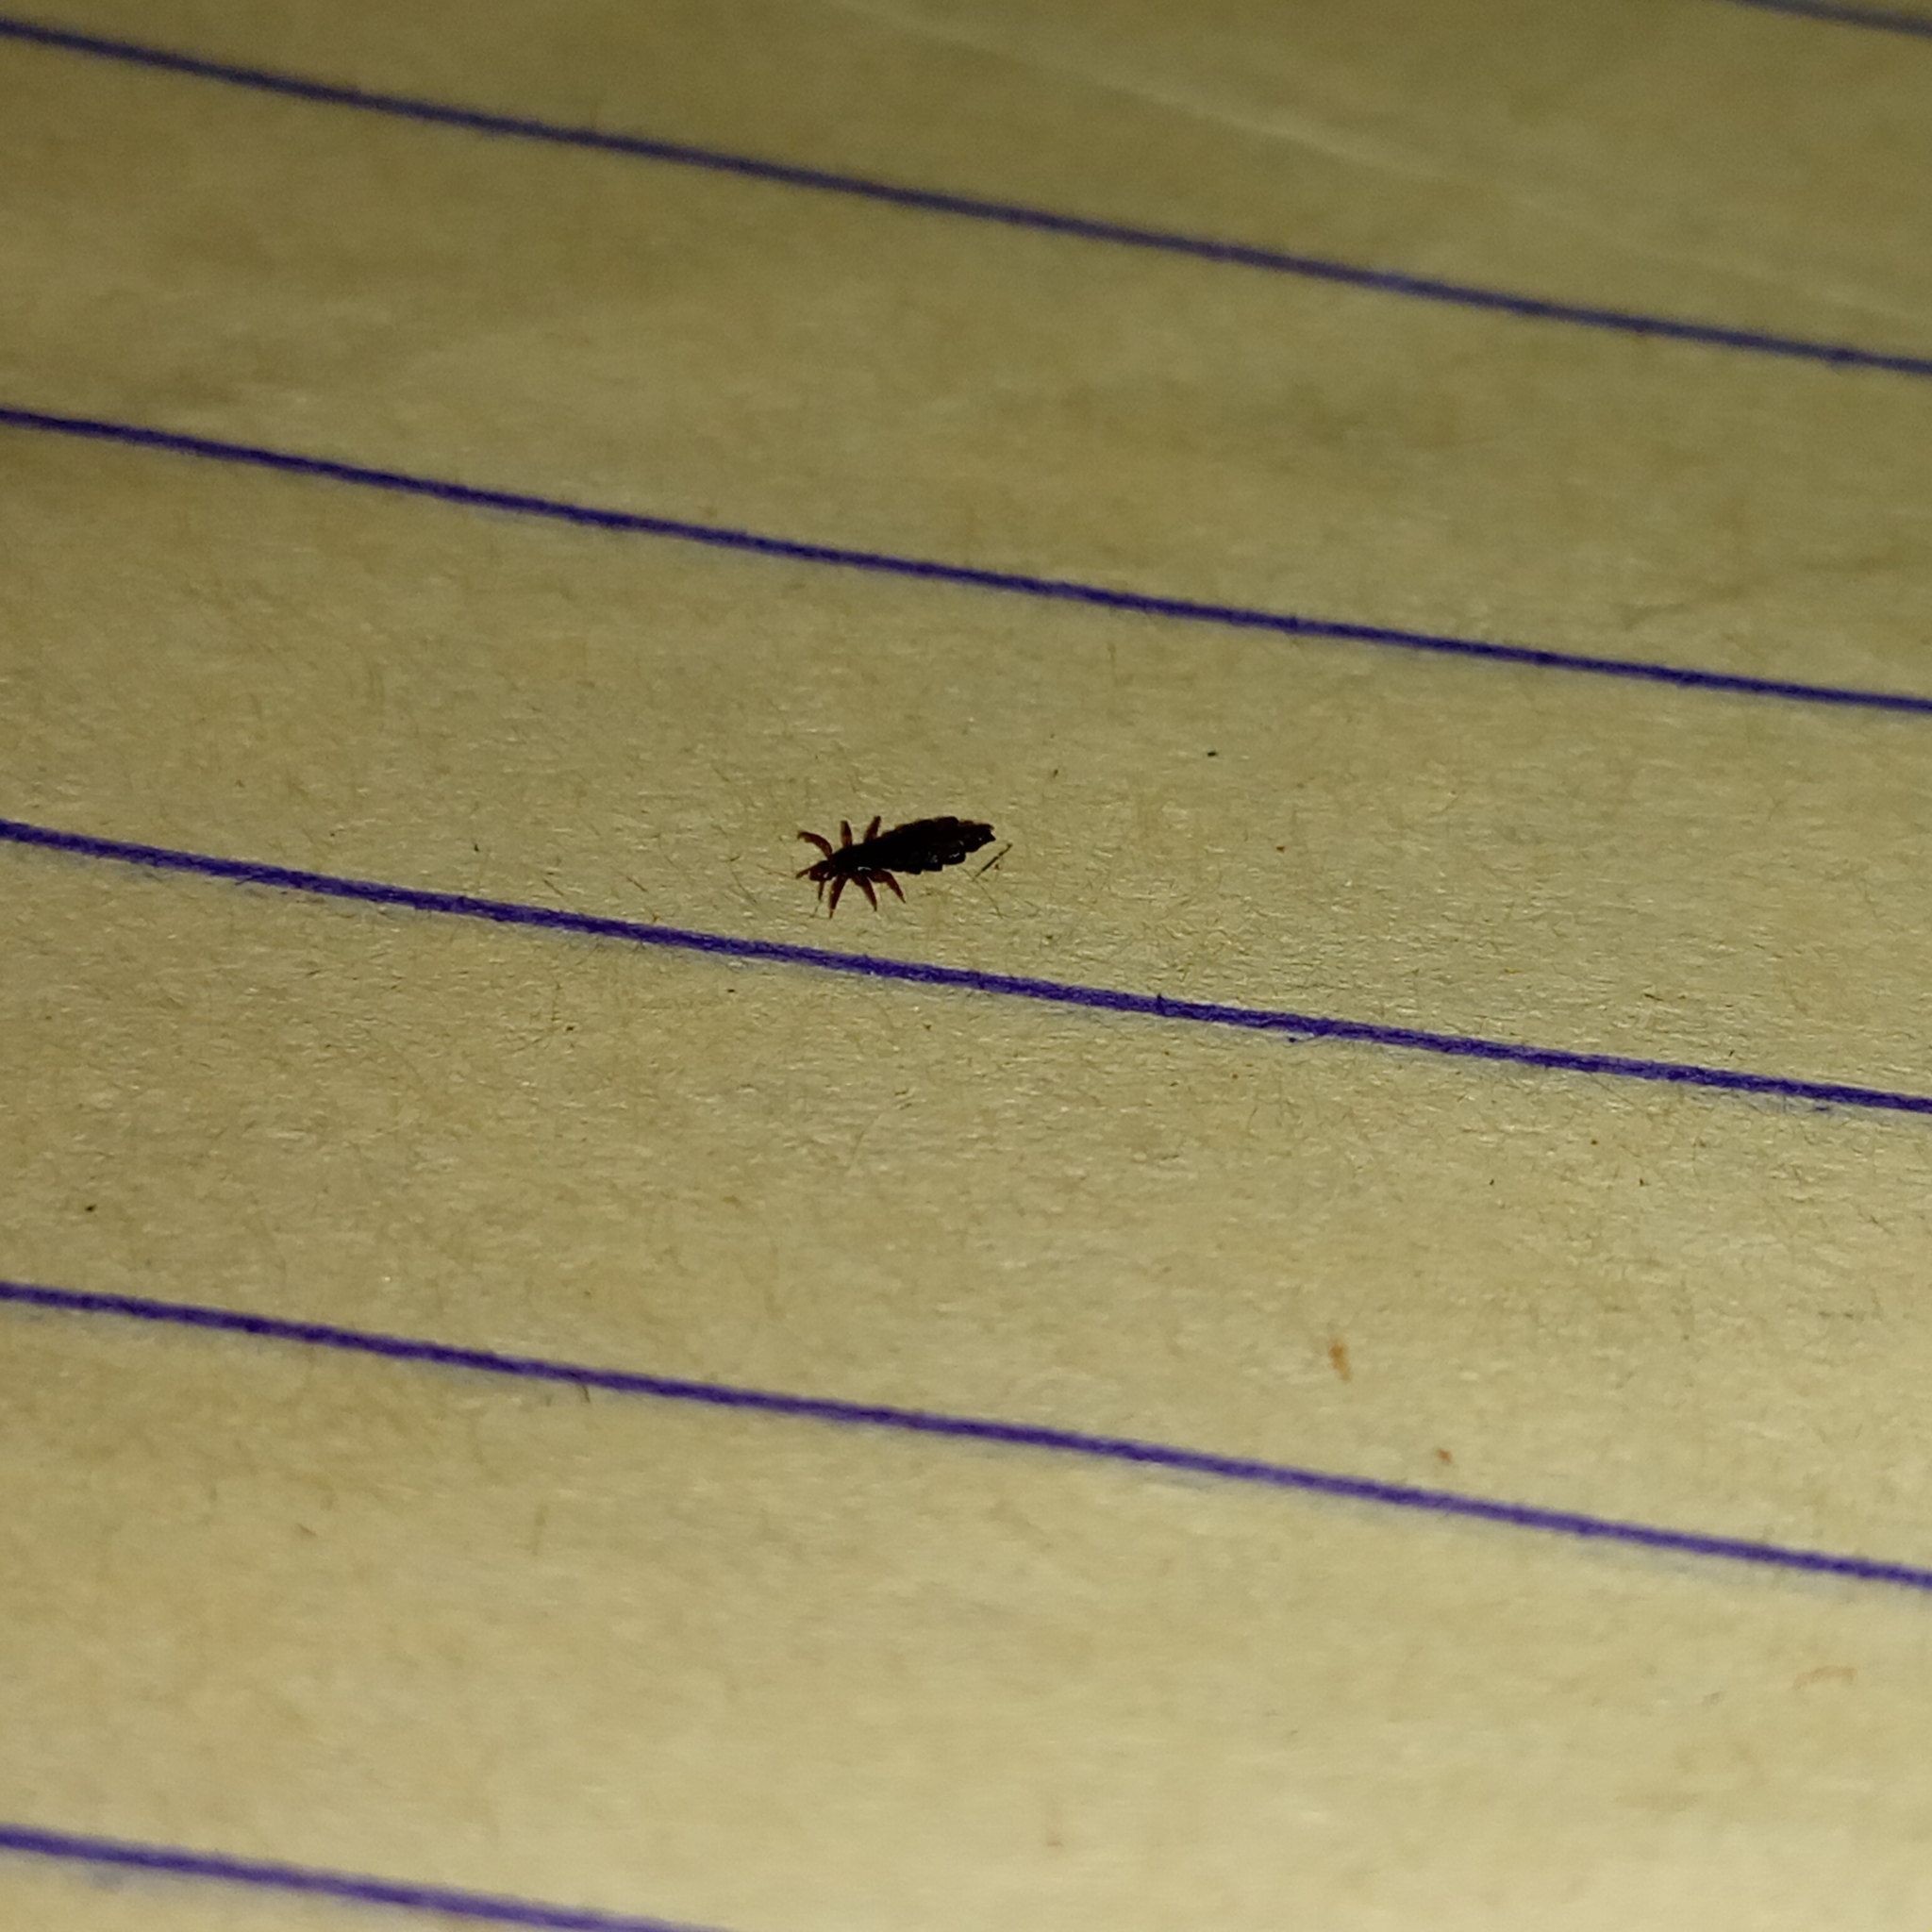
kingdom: Animalia
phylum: Arthropoda
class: Insecta
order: Psocodea
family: Pediculidae
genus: Pediculus
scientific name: Pediculus humanus
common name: Body louse
